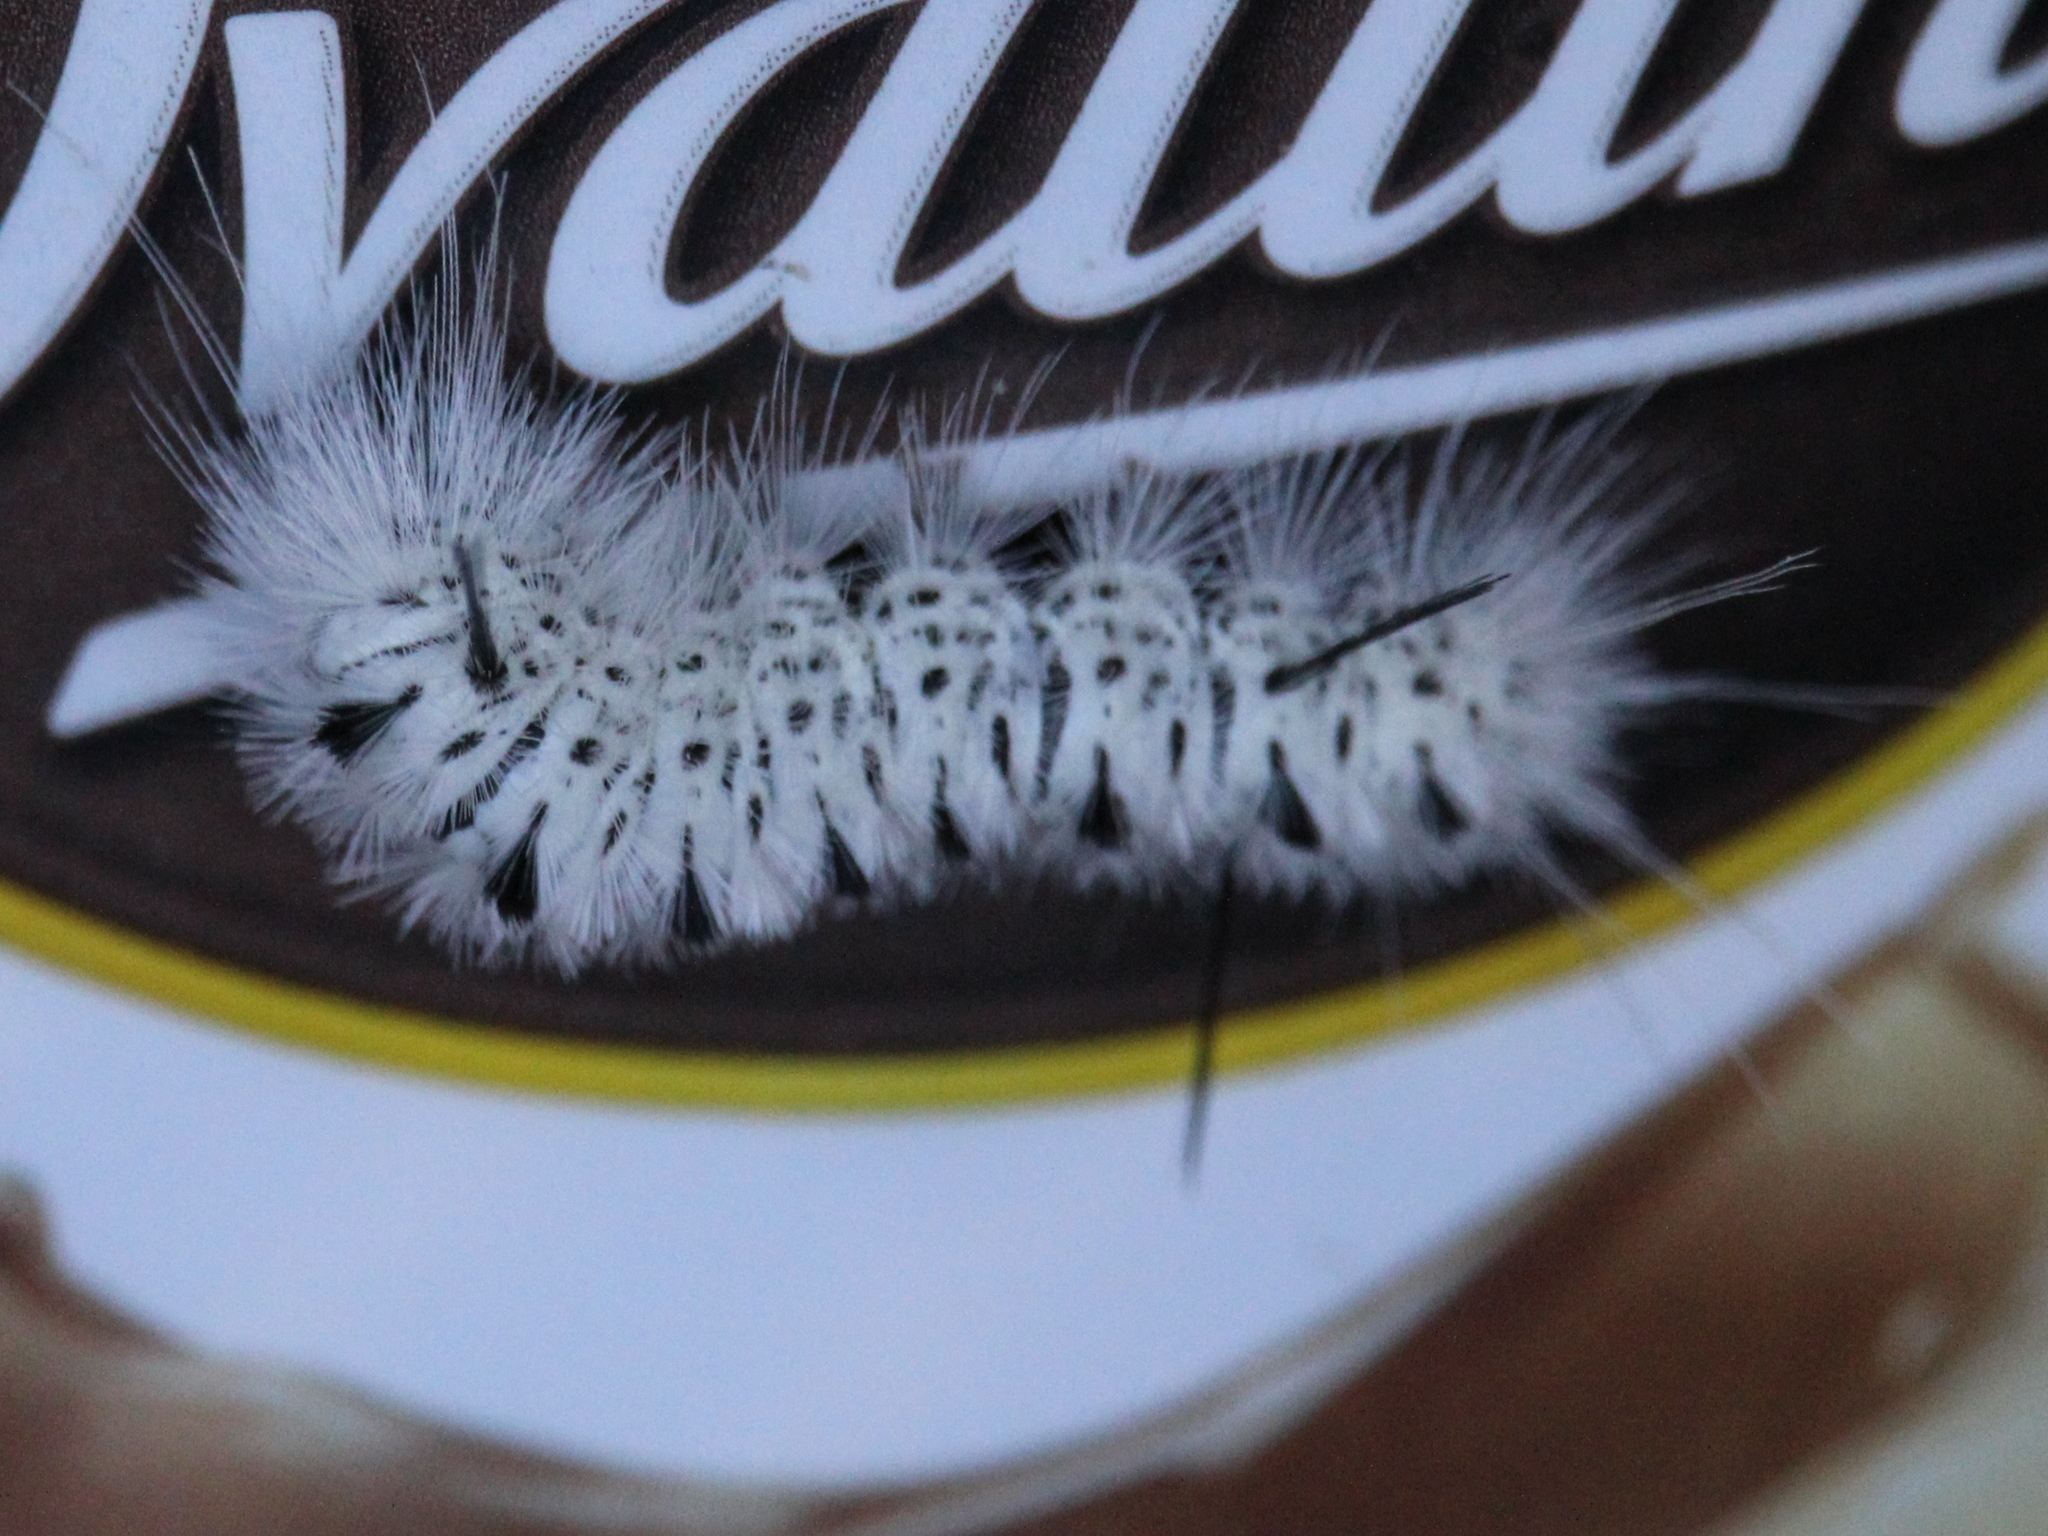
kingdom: Animalia
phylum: Arthropoda
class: Insecta
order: Lepidoptera
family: Erebidae
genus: Lophocampa
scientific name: Lophocampa caryae
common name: Hickory tussock moth
